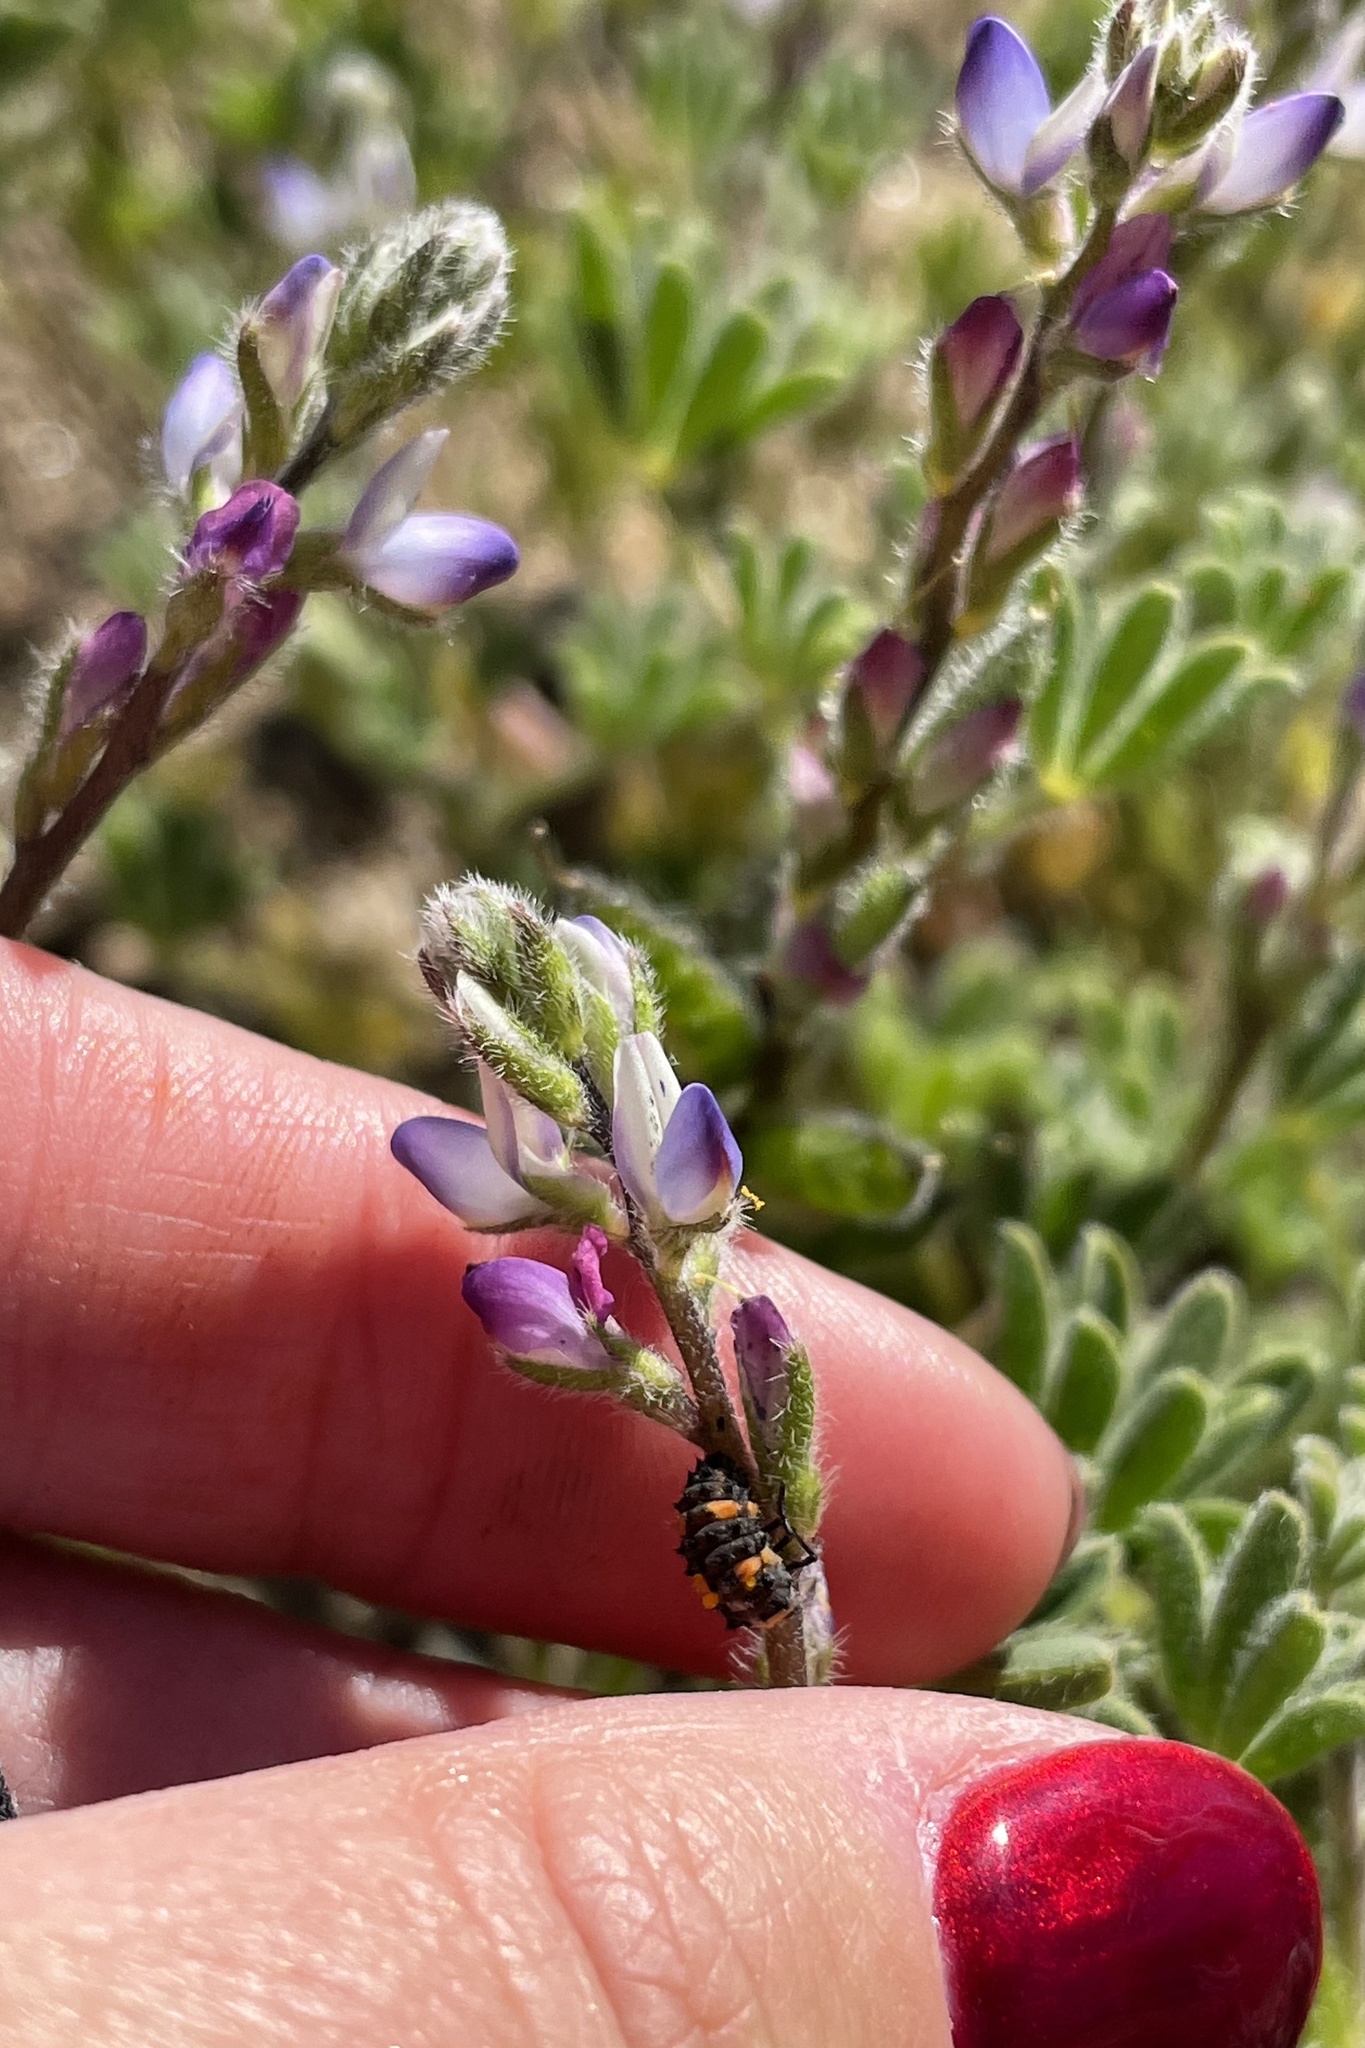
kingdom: Plantae
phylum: Tracheophyta
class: Magnoliopsida
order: Fabales
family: Fabaceae
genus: Lupinus
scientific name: Lupinus concinnus
